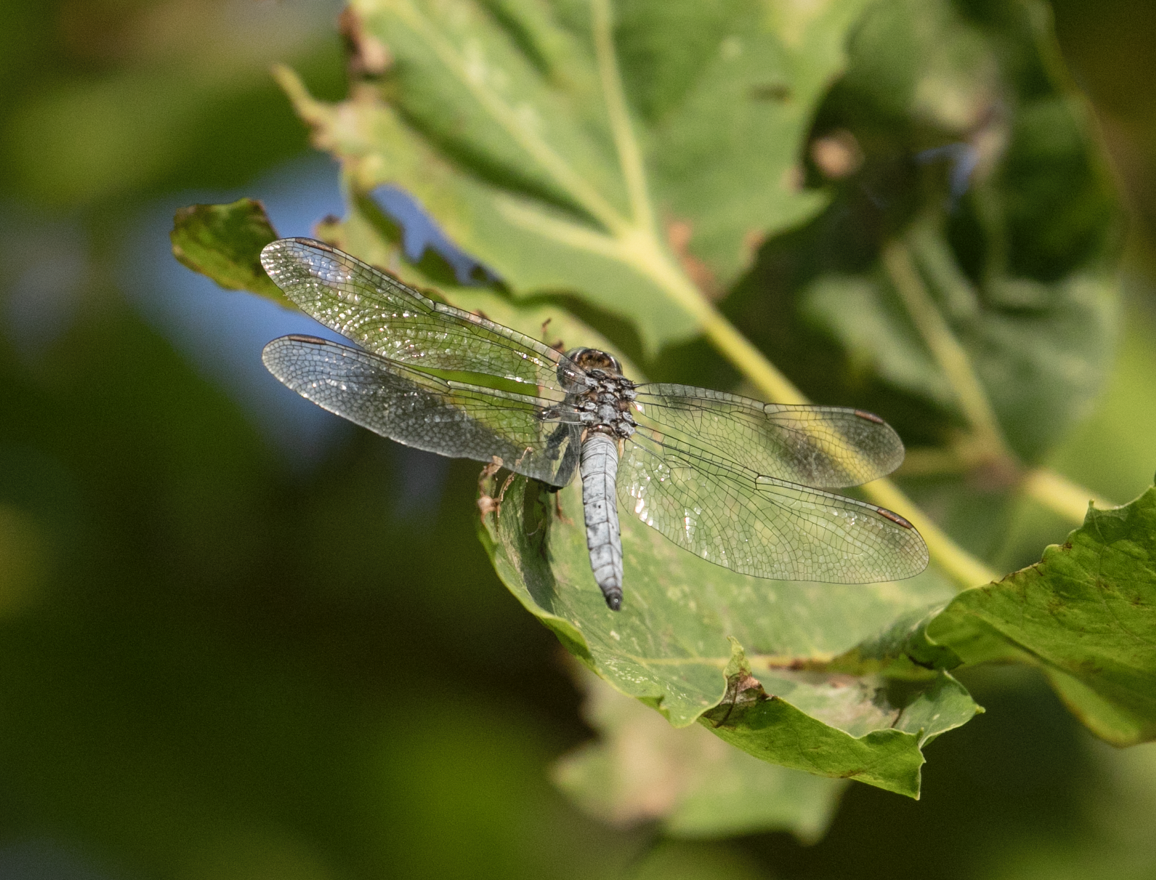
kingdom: Animalia
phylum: Arthropoda
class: Insecta
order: Odonata
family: Libellulidae
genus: Orthetrum
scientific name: Orthetrum coerulescens
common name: Keeled skimmer
